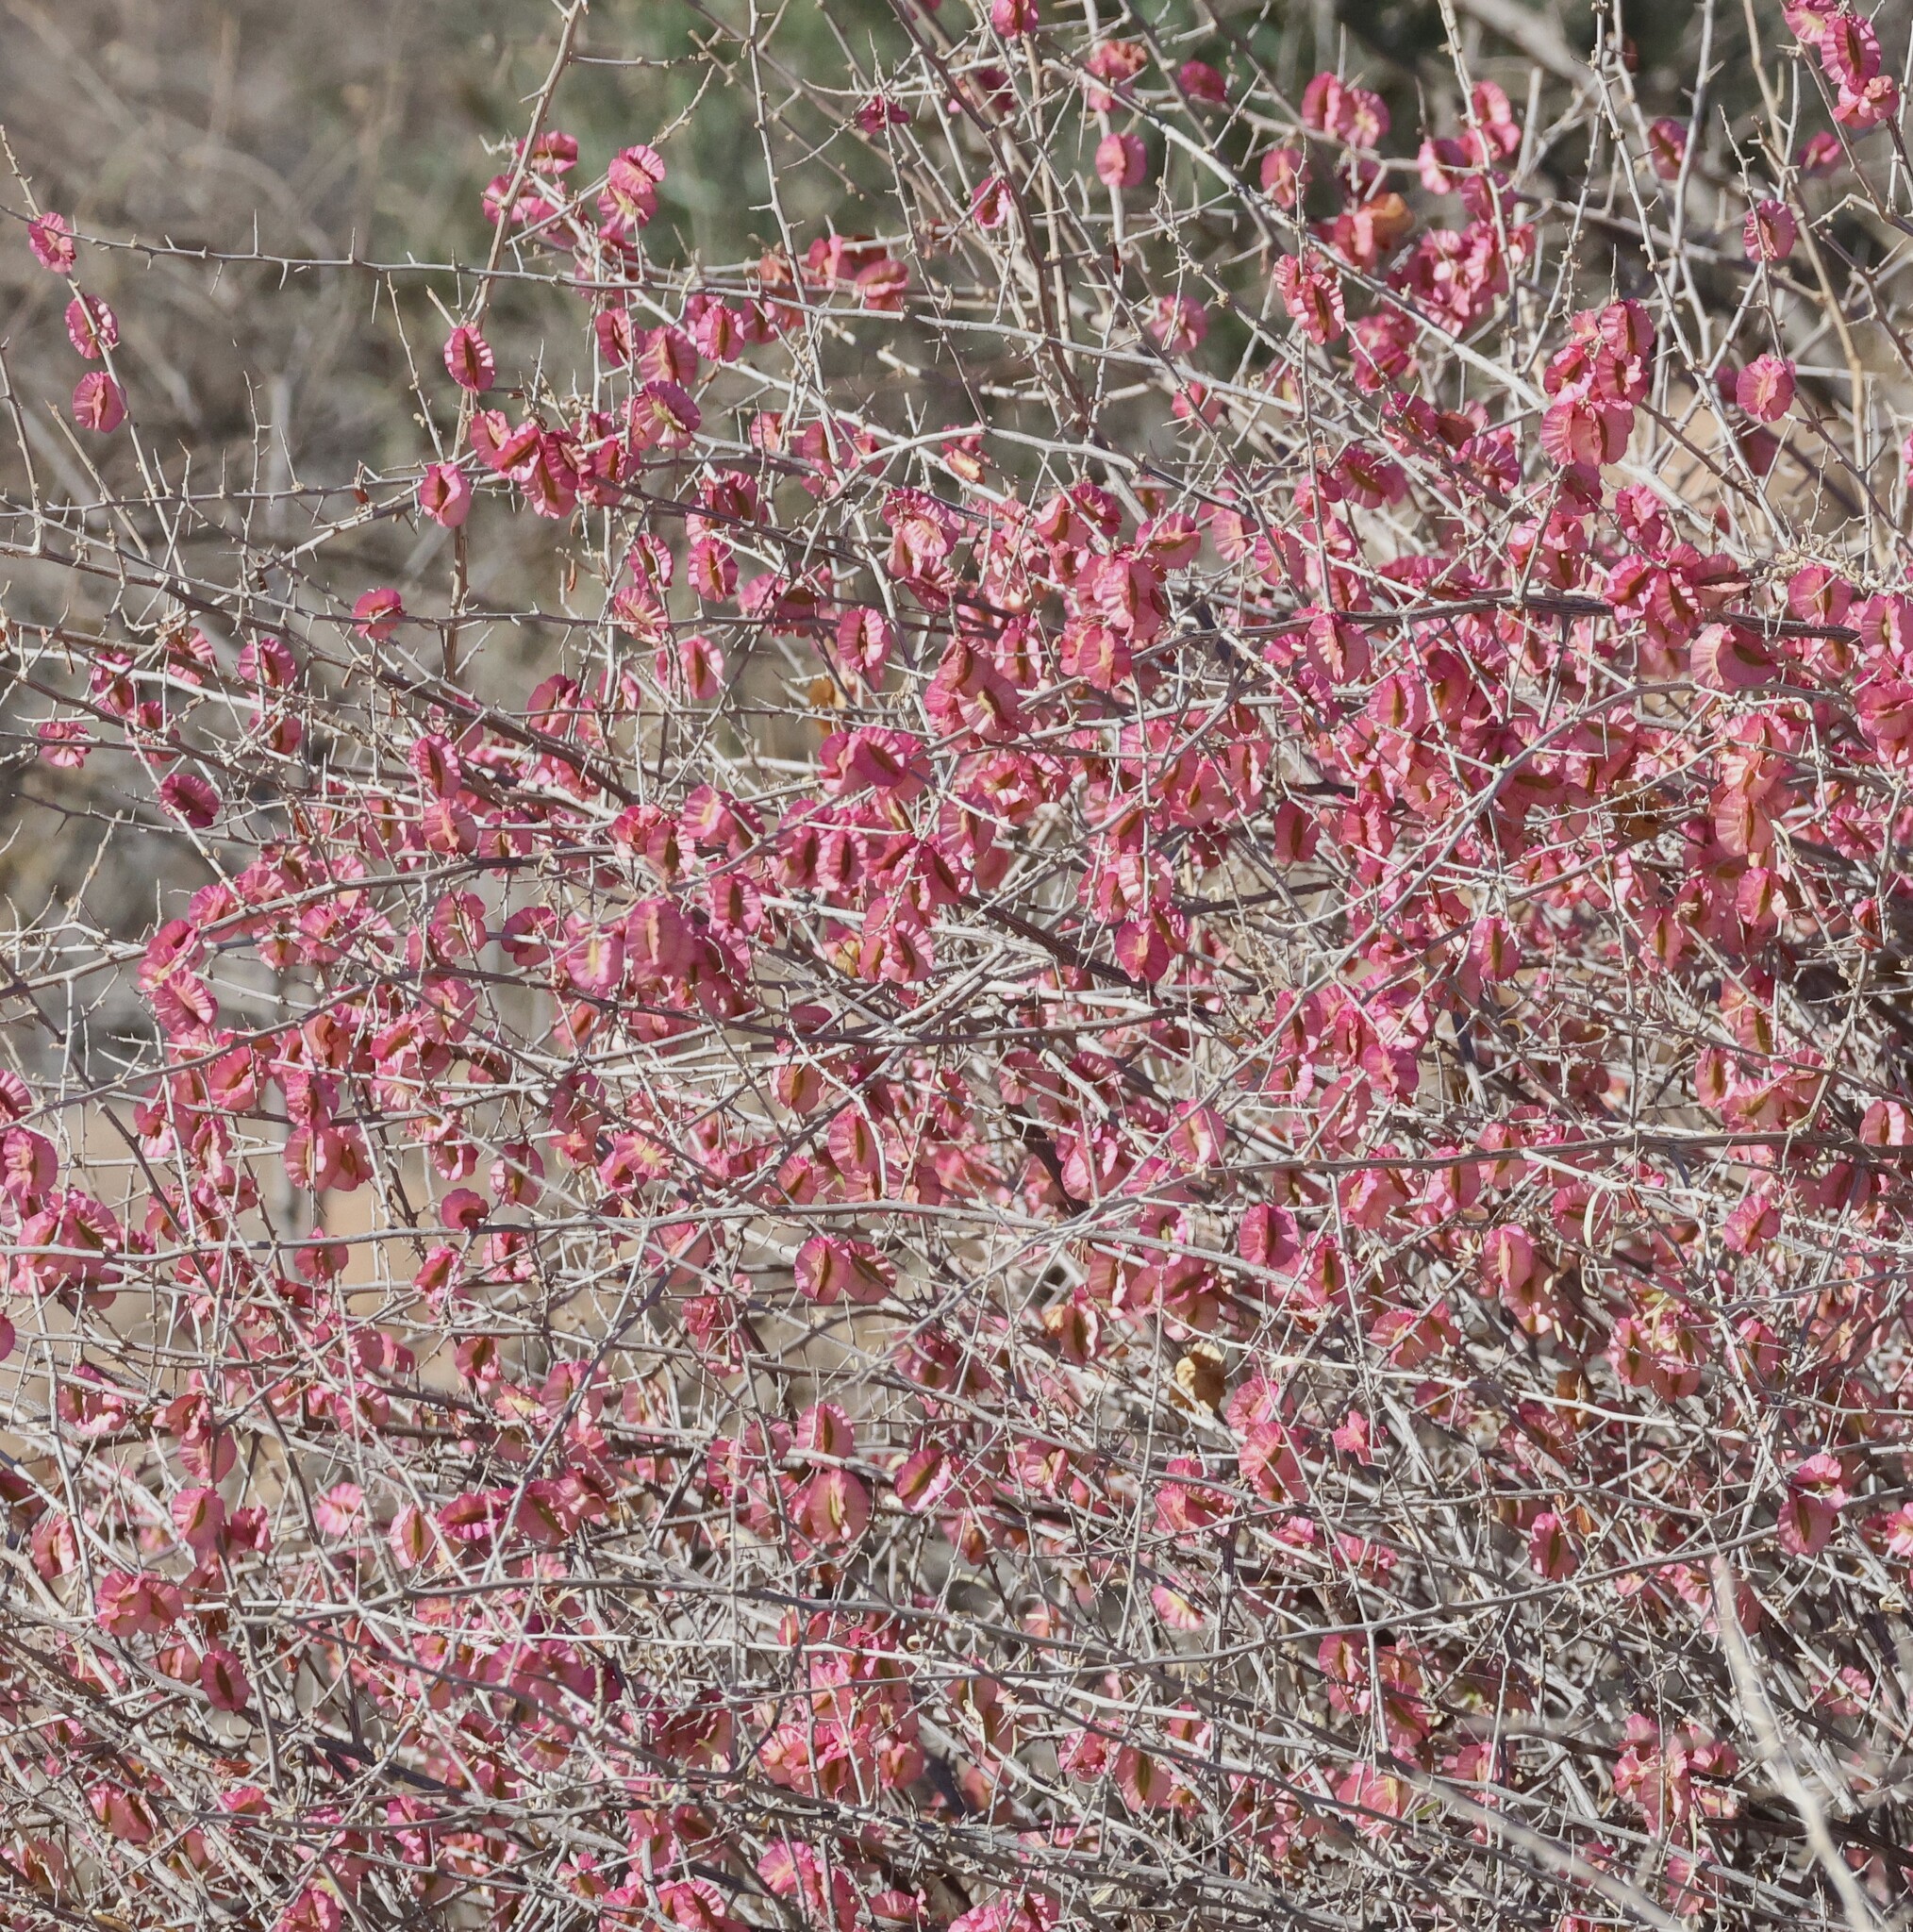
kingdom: Plantae
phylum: Tracheophyta
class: Magnoliopsida
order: Caryophyllales
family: Nyctaginaceae
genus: Phaeoptilum
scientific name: Phaeoptilum spinosum
